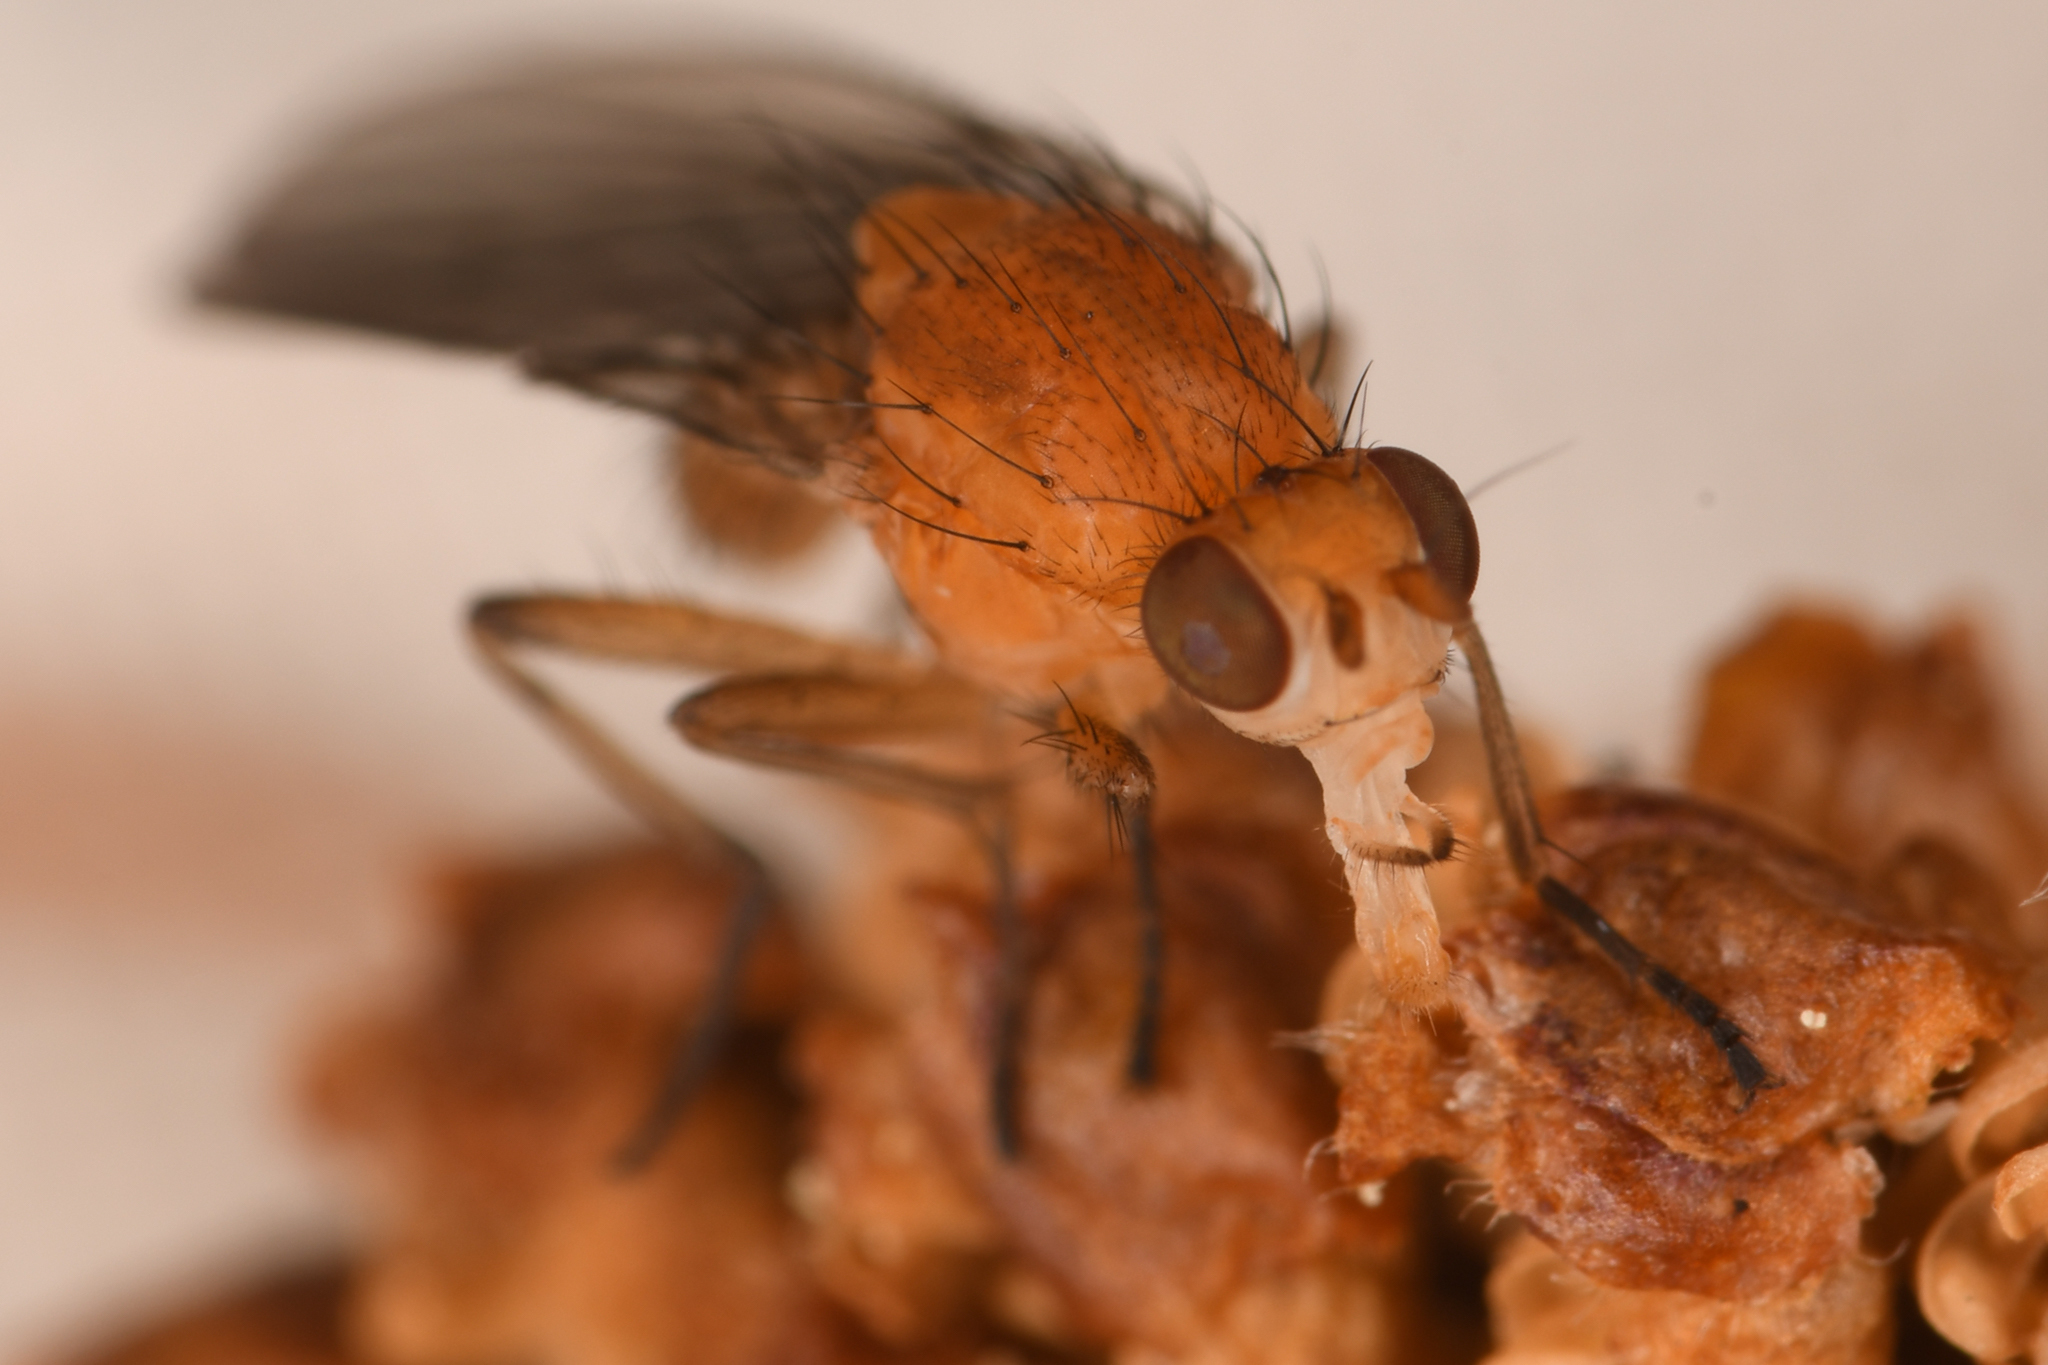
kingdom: Animalia
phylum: Arthropoda
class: Insecta
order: Diptera
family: Heleomyzidae
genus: Suillia
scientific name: Suillia convergens
